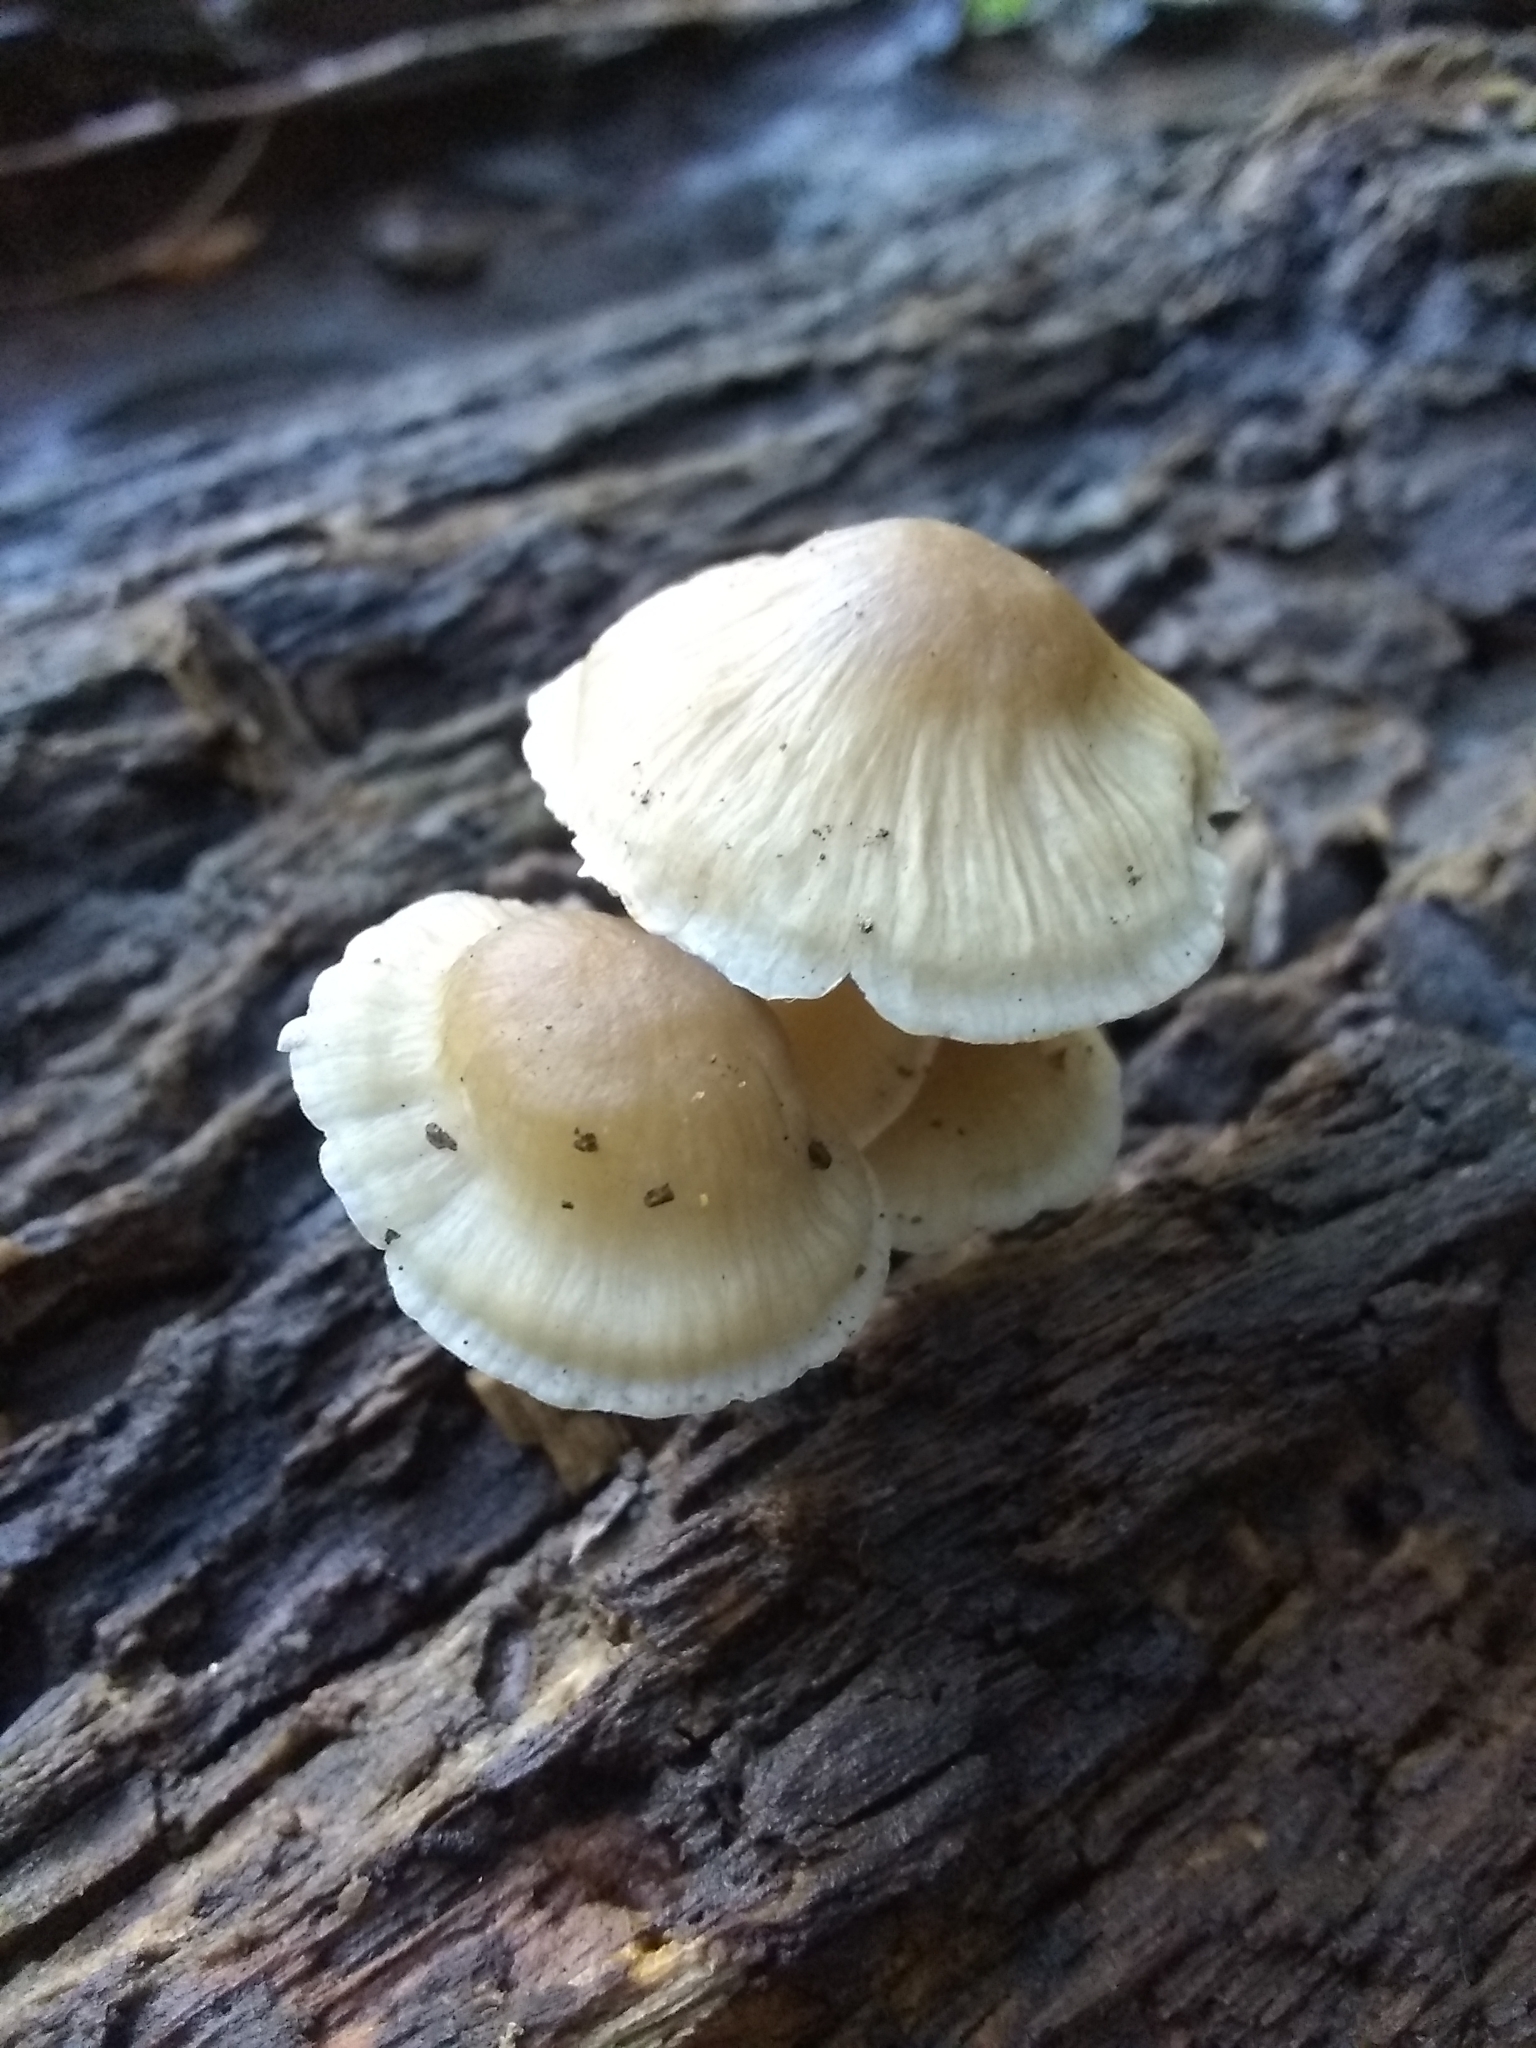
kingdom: Fungi
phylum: Basidiomycota
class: Agaricomycetes
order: Agaricales
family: Mycenaceae
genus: Mycena
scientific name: Mycena galericulata
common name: Bonnet mycena
